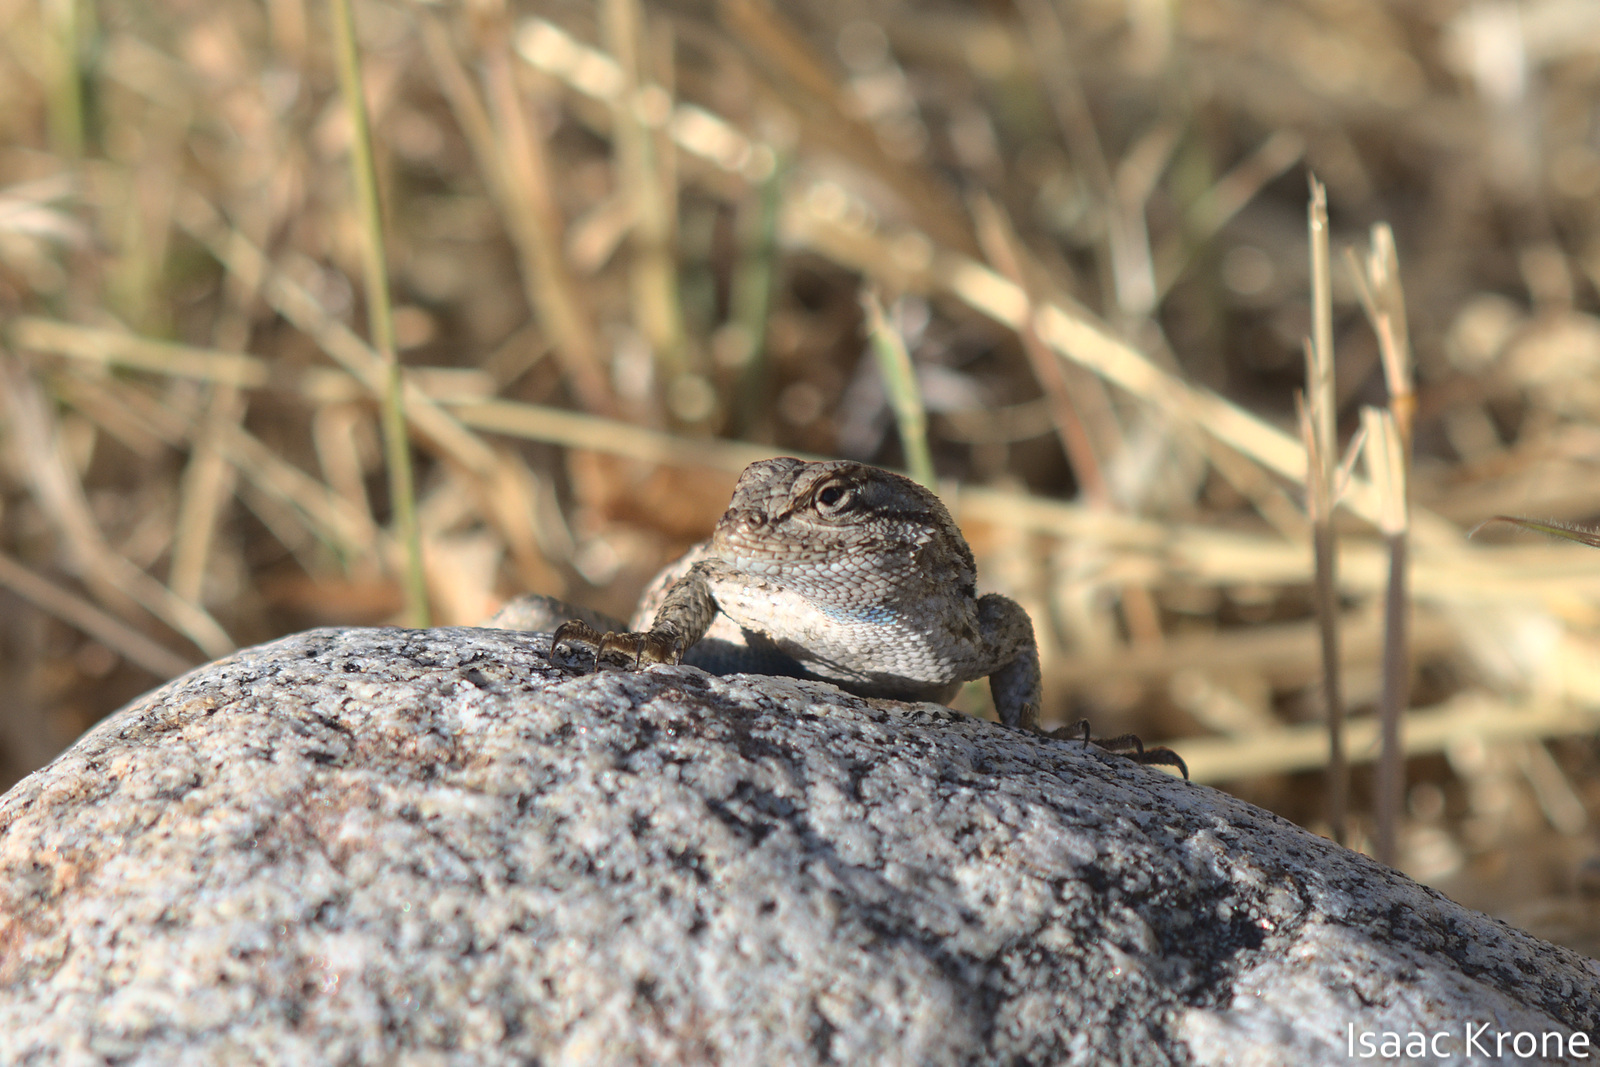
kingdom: Animalia
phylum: Chordata
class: Squamata
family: Phrynosomatidae
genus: Sceloporus
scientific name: Sceloporus occidentalis
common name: Western fence lizard
